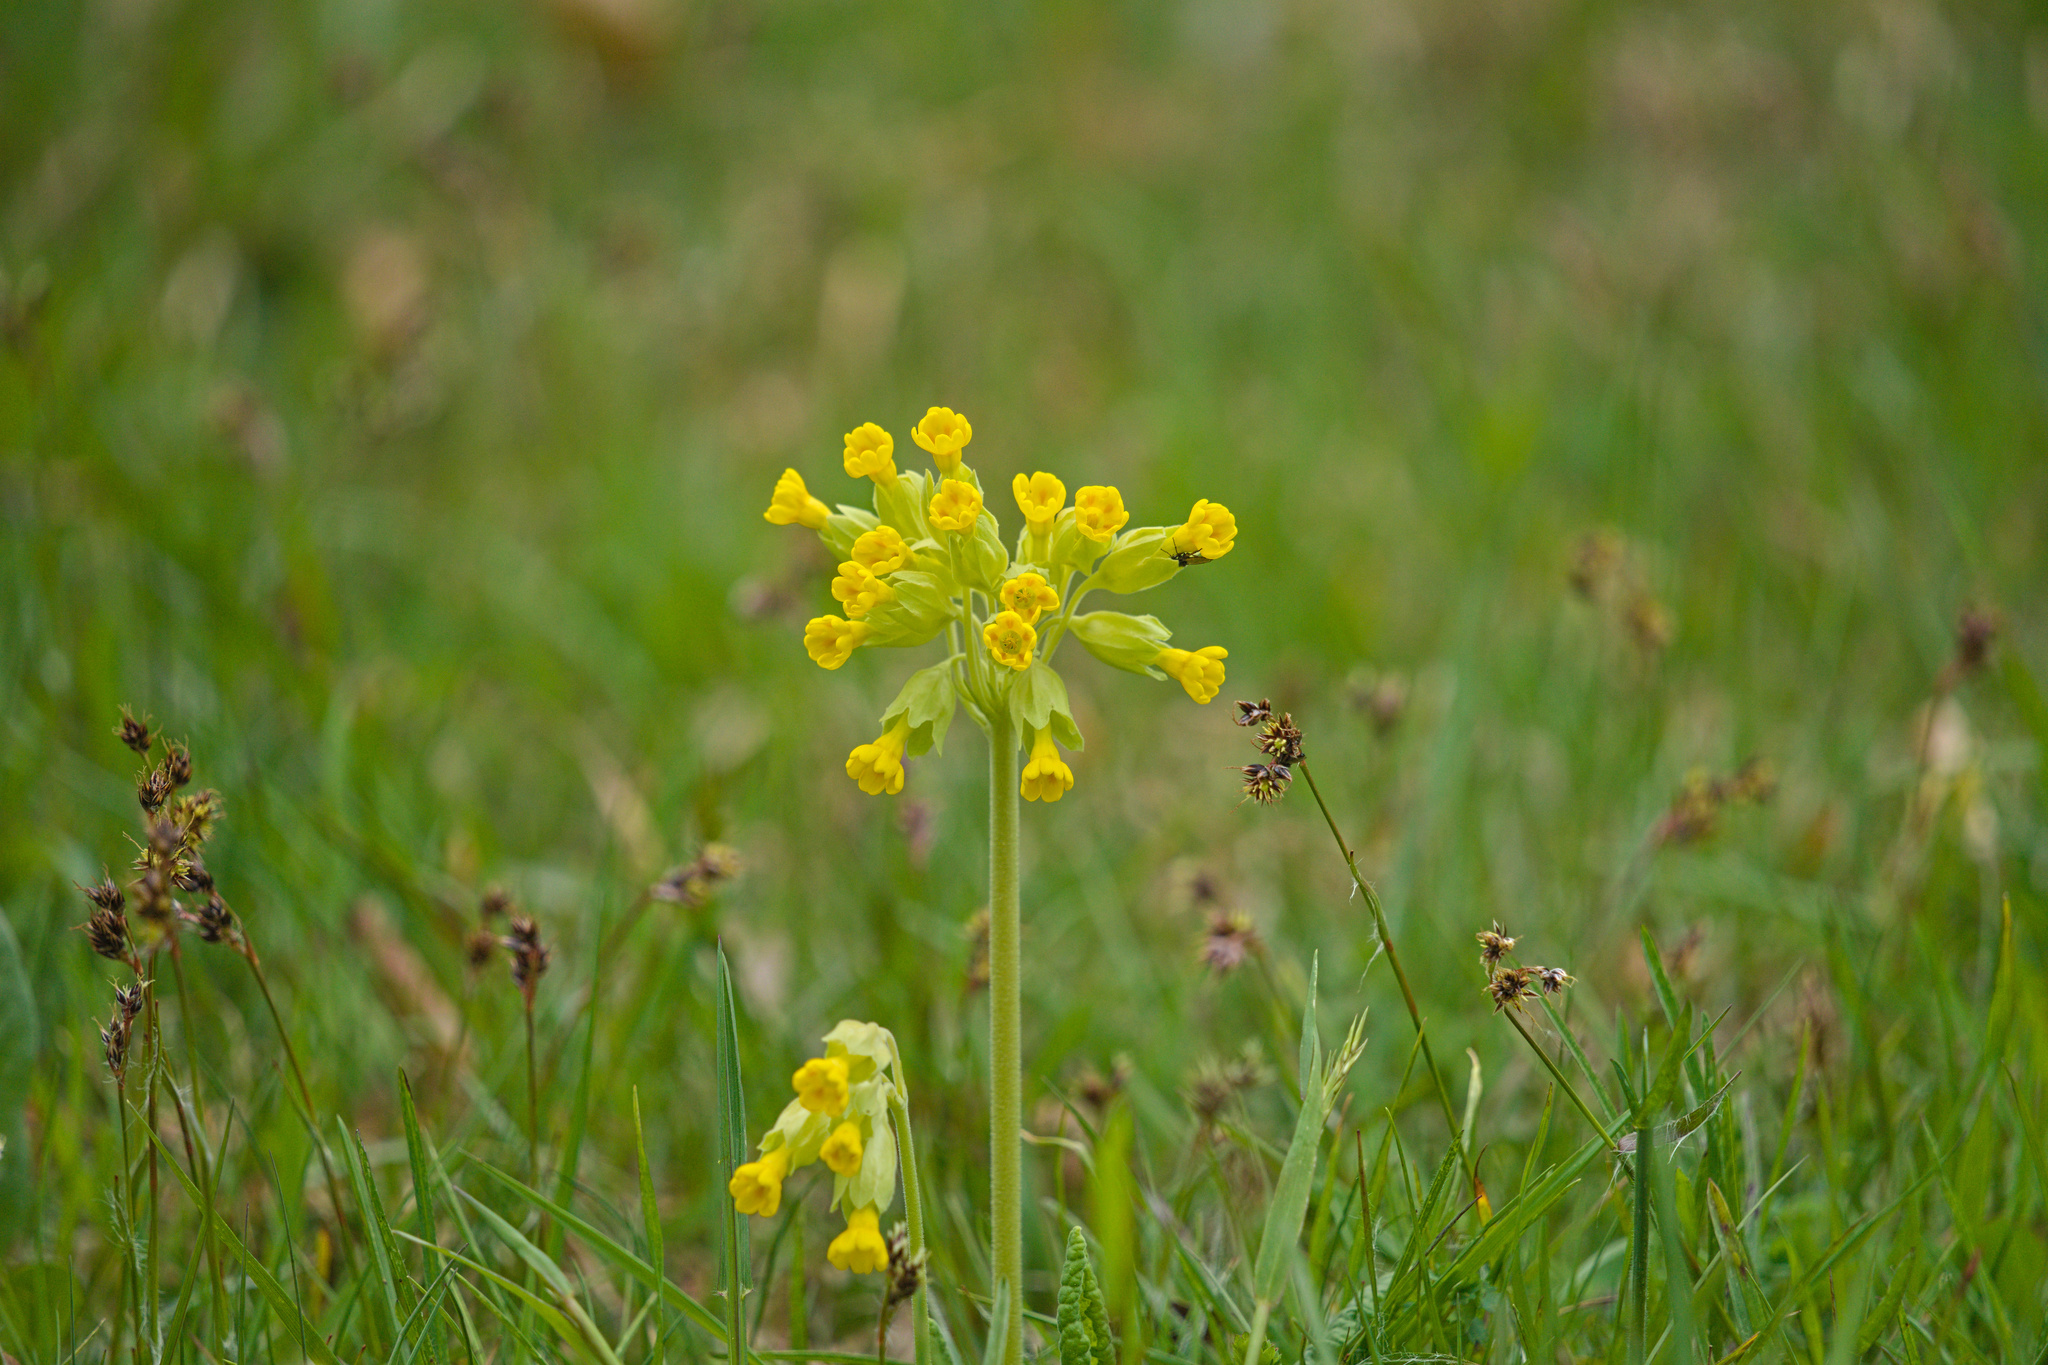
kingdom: Plantae
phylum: Tracheophyta
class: Magnoliopsida
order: Ericales
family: Primulaceae
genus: Primula
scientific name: Primula veris
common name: Cowslip
